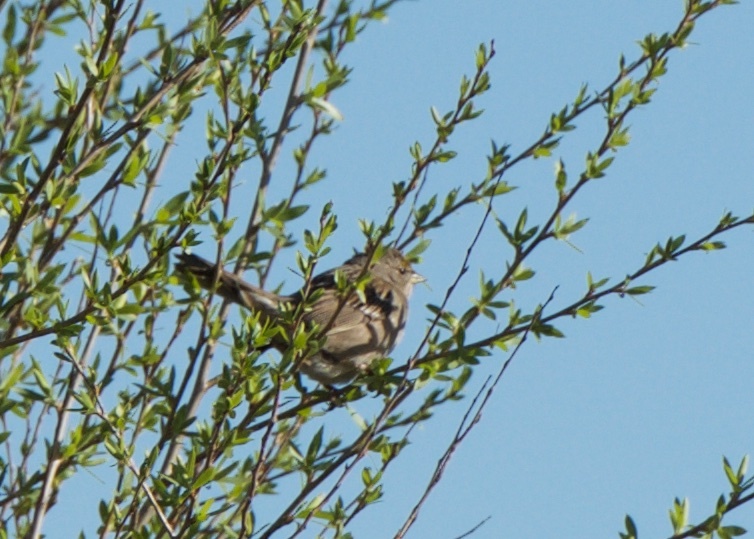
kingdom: Animalia
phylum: Chordata
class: Aves
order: Passeriformes
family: Passerellidae
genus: Zonotrichia
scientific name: Zonotrichia atricapilla
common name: Golden-crowned sparrow
